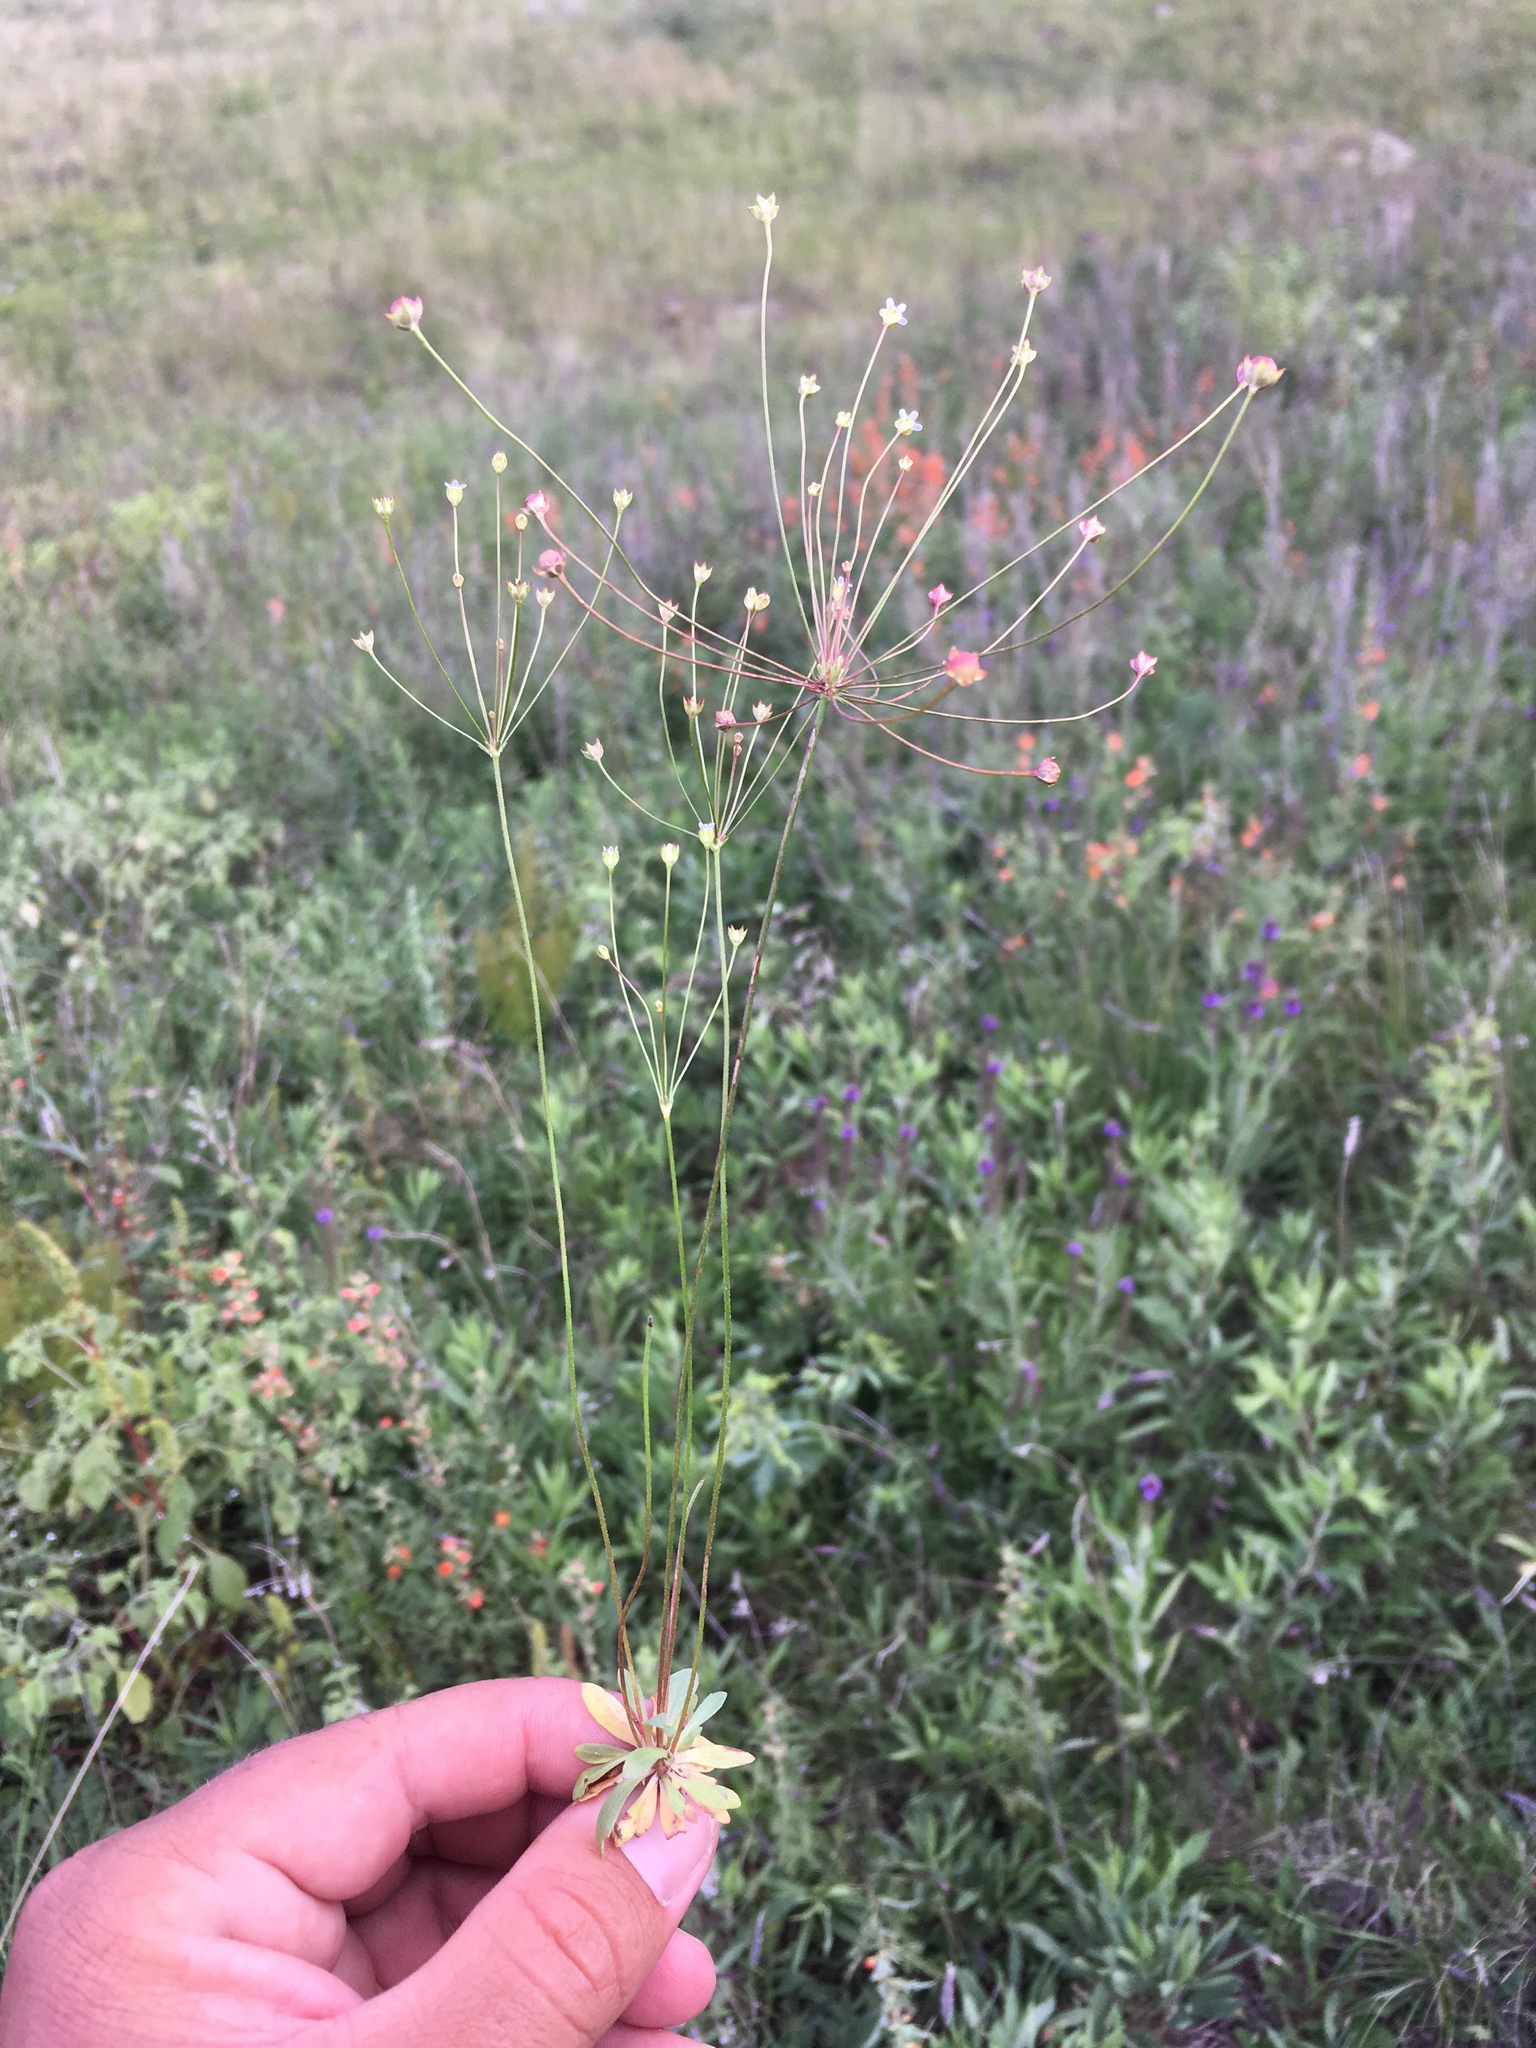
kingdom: Plantae
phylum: Tracheophyta
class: Magnoliopsida
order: Ericales
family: Primulaceae
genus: Androsace
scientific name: Androsace septentrionalis
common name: Hairy northern fairy-candelabra
